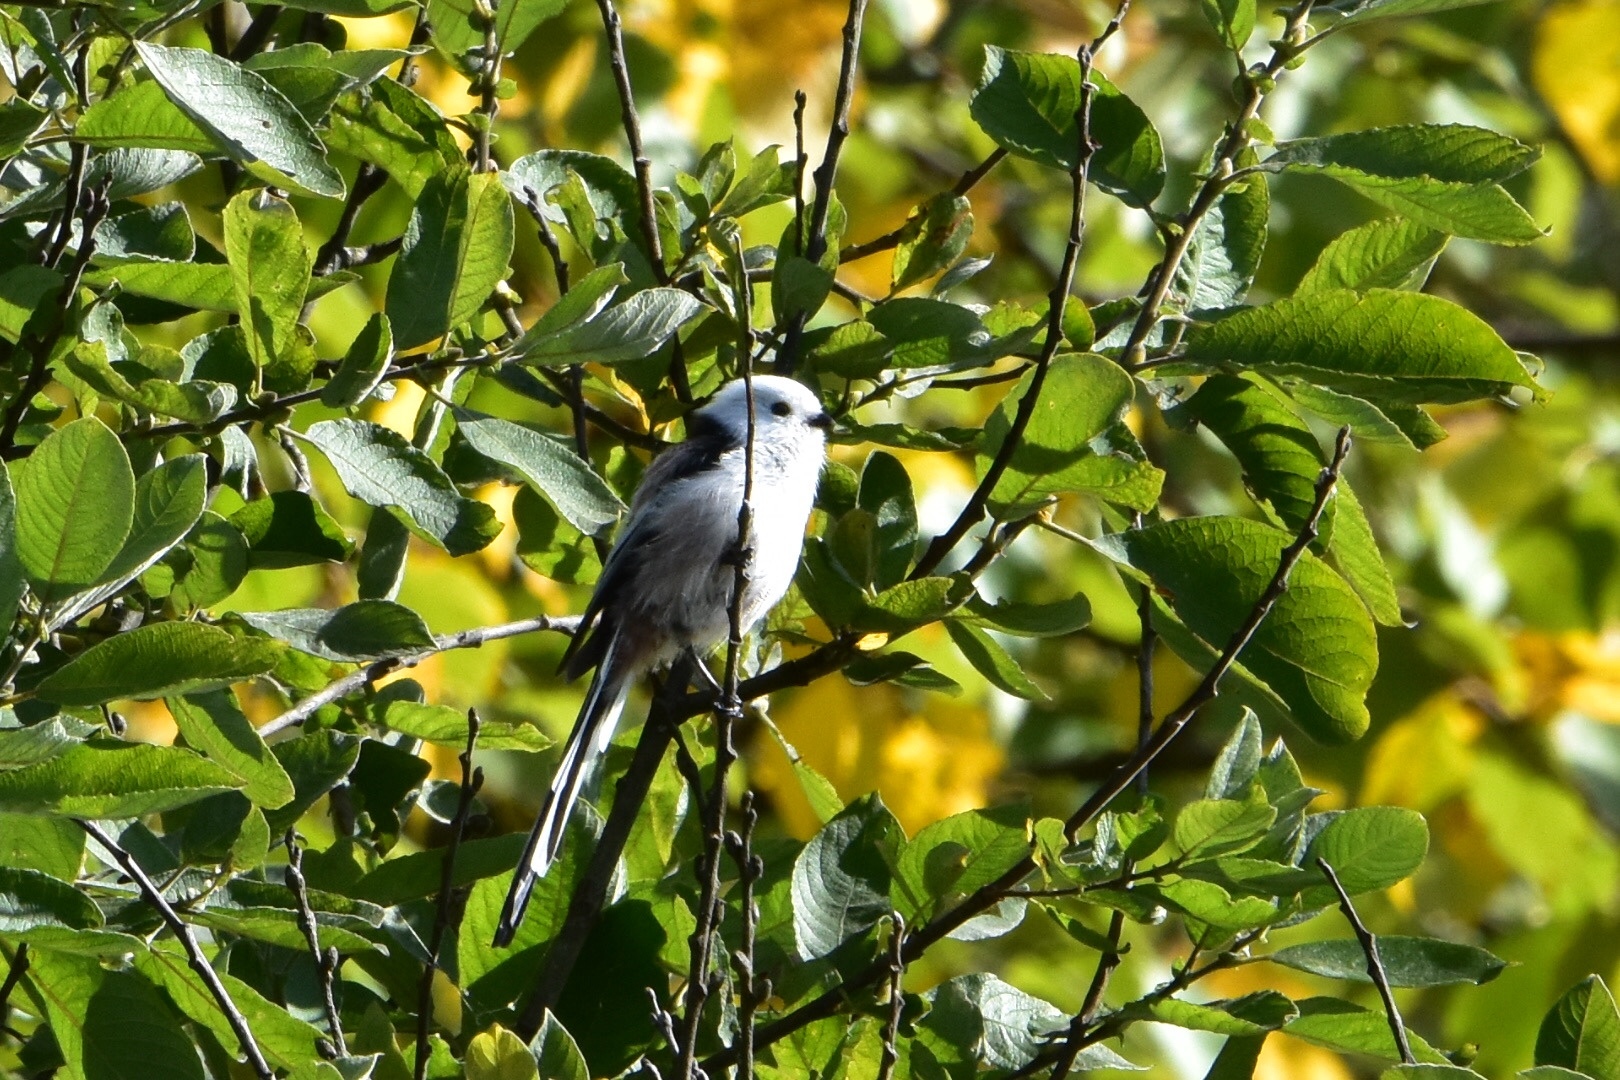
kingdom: Animalia
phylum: Chordata
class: Aves
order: Passeriformes
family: Aegithalidae
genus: Aegithalos
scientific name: Aegithalos caudatus
